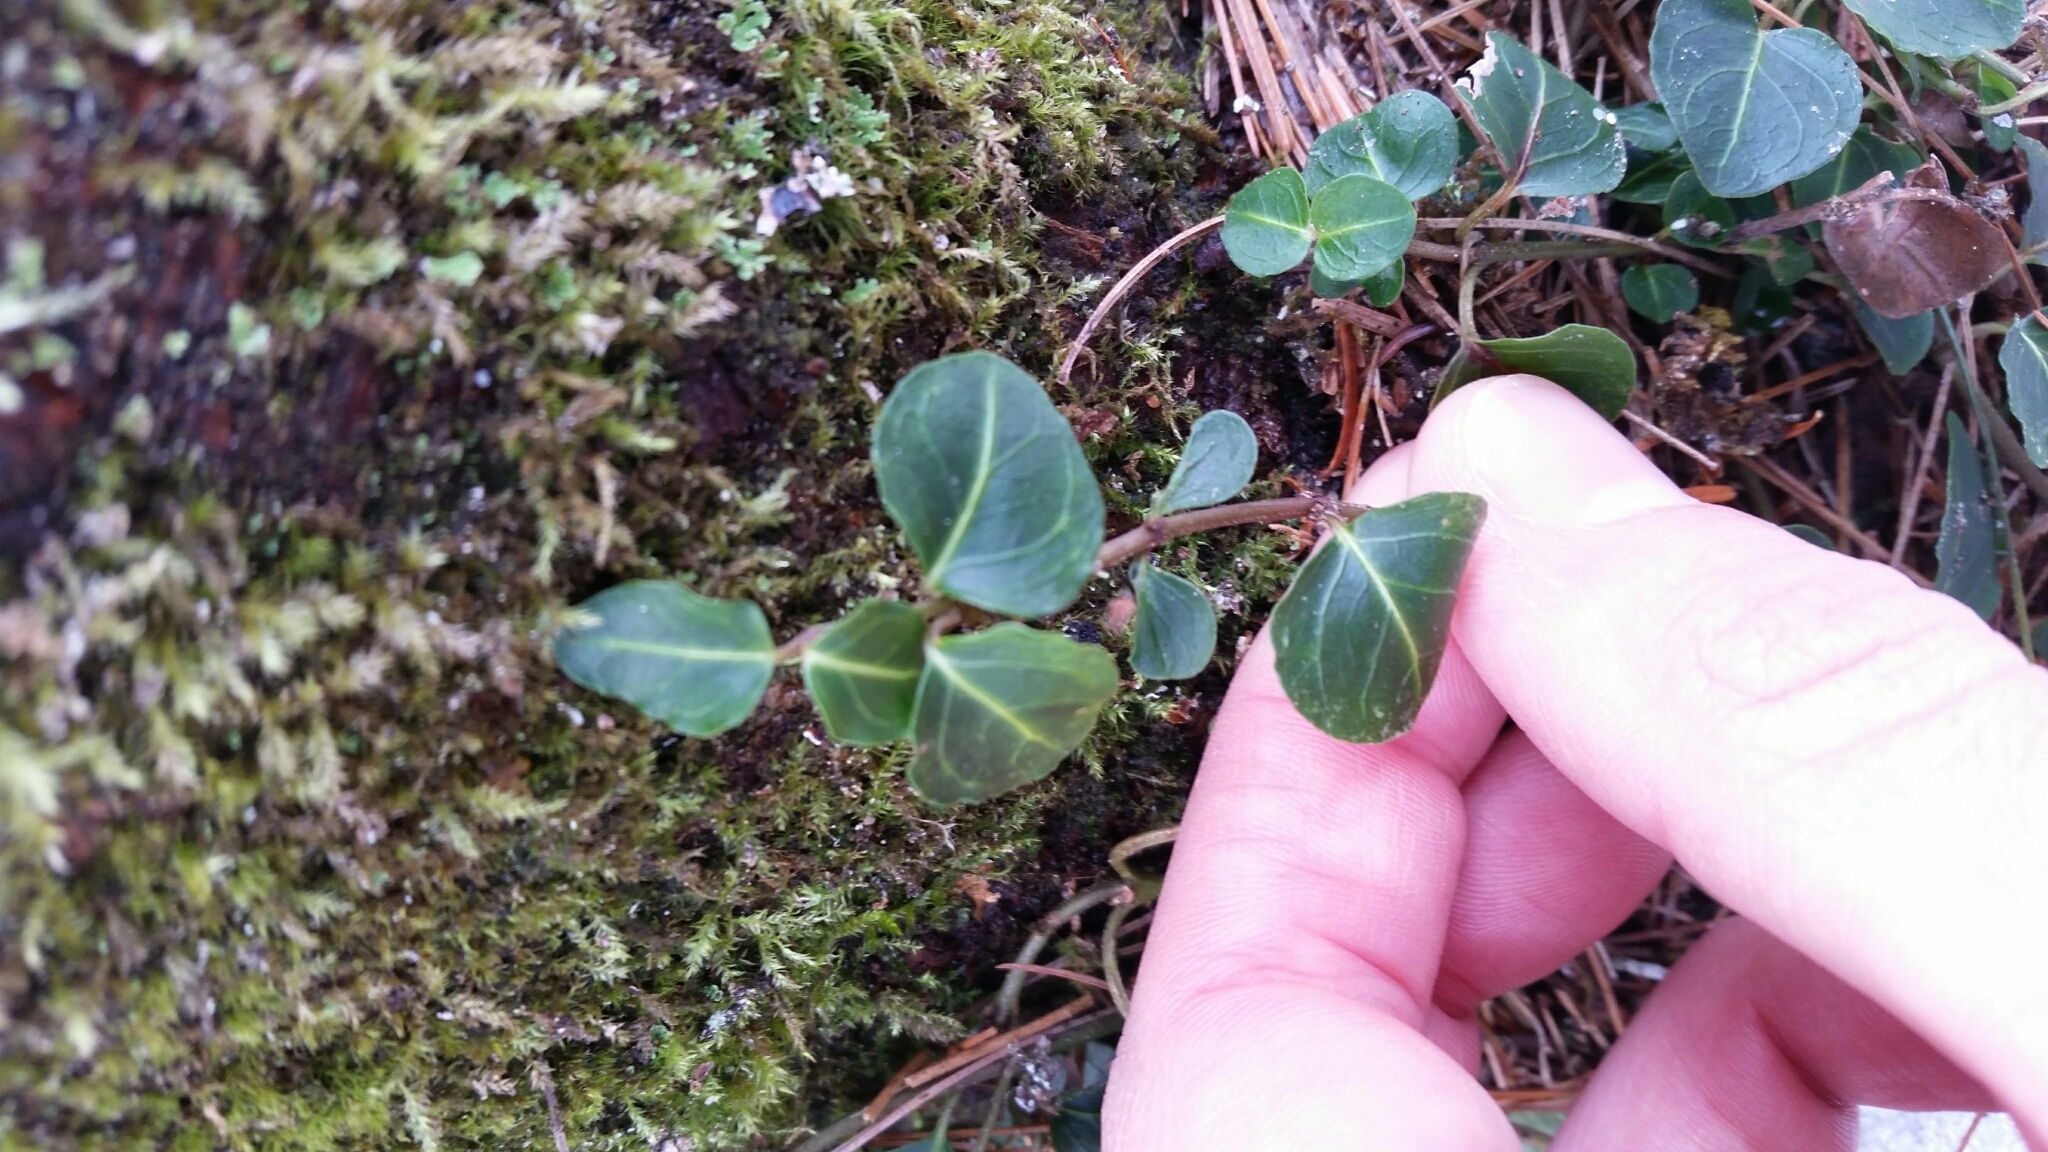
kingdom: Plantae
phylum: Tracheophyta
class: Magnoliopsida
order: Gentianales
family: Rubiaceae
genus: Mitchella
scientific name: Mitchella repens
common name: Partridge-berry
